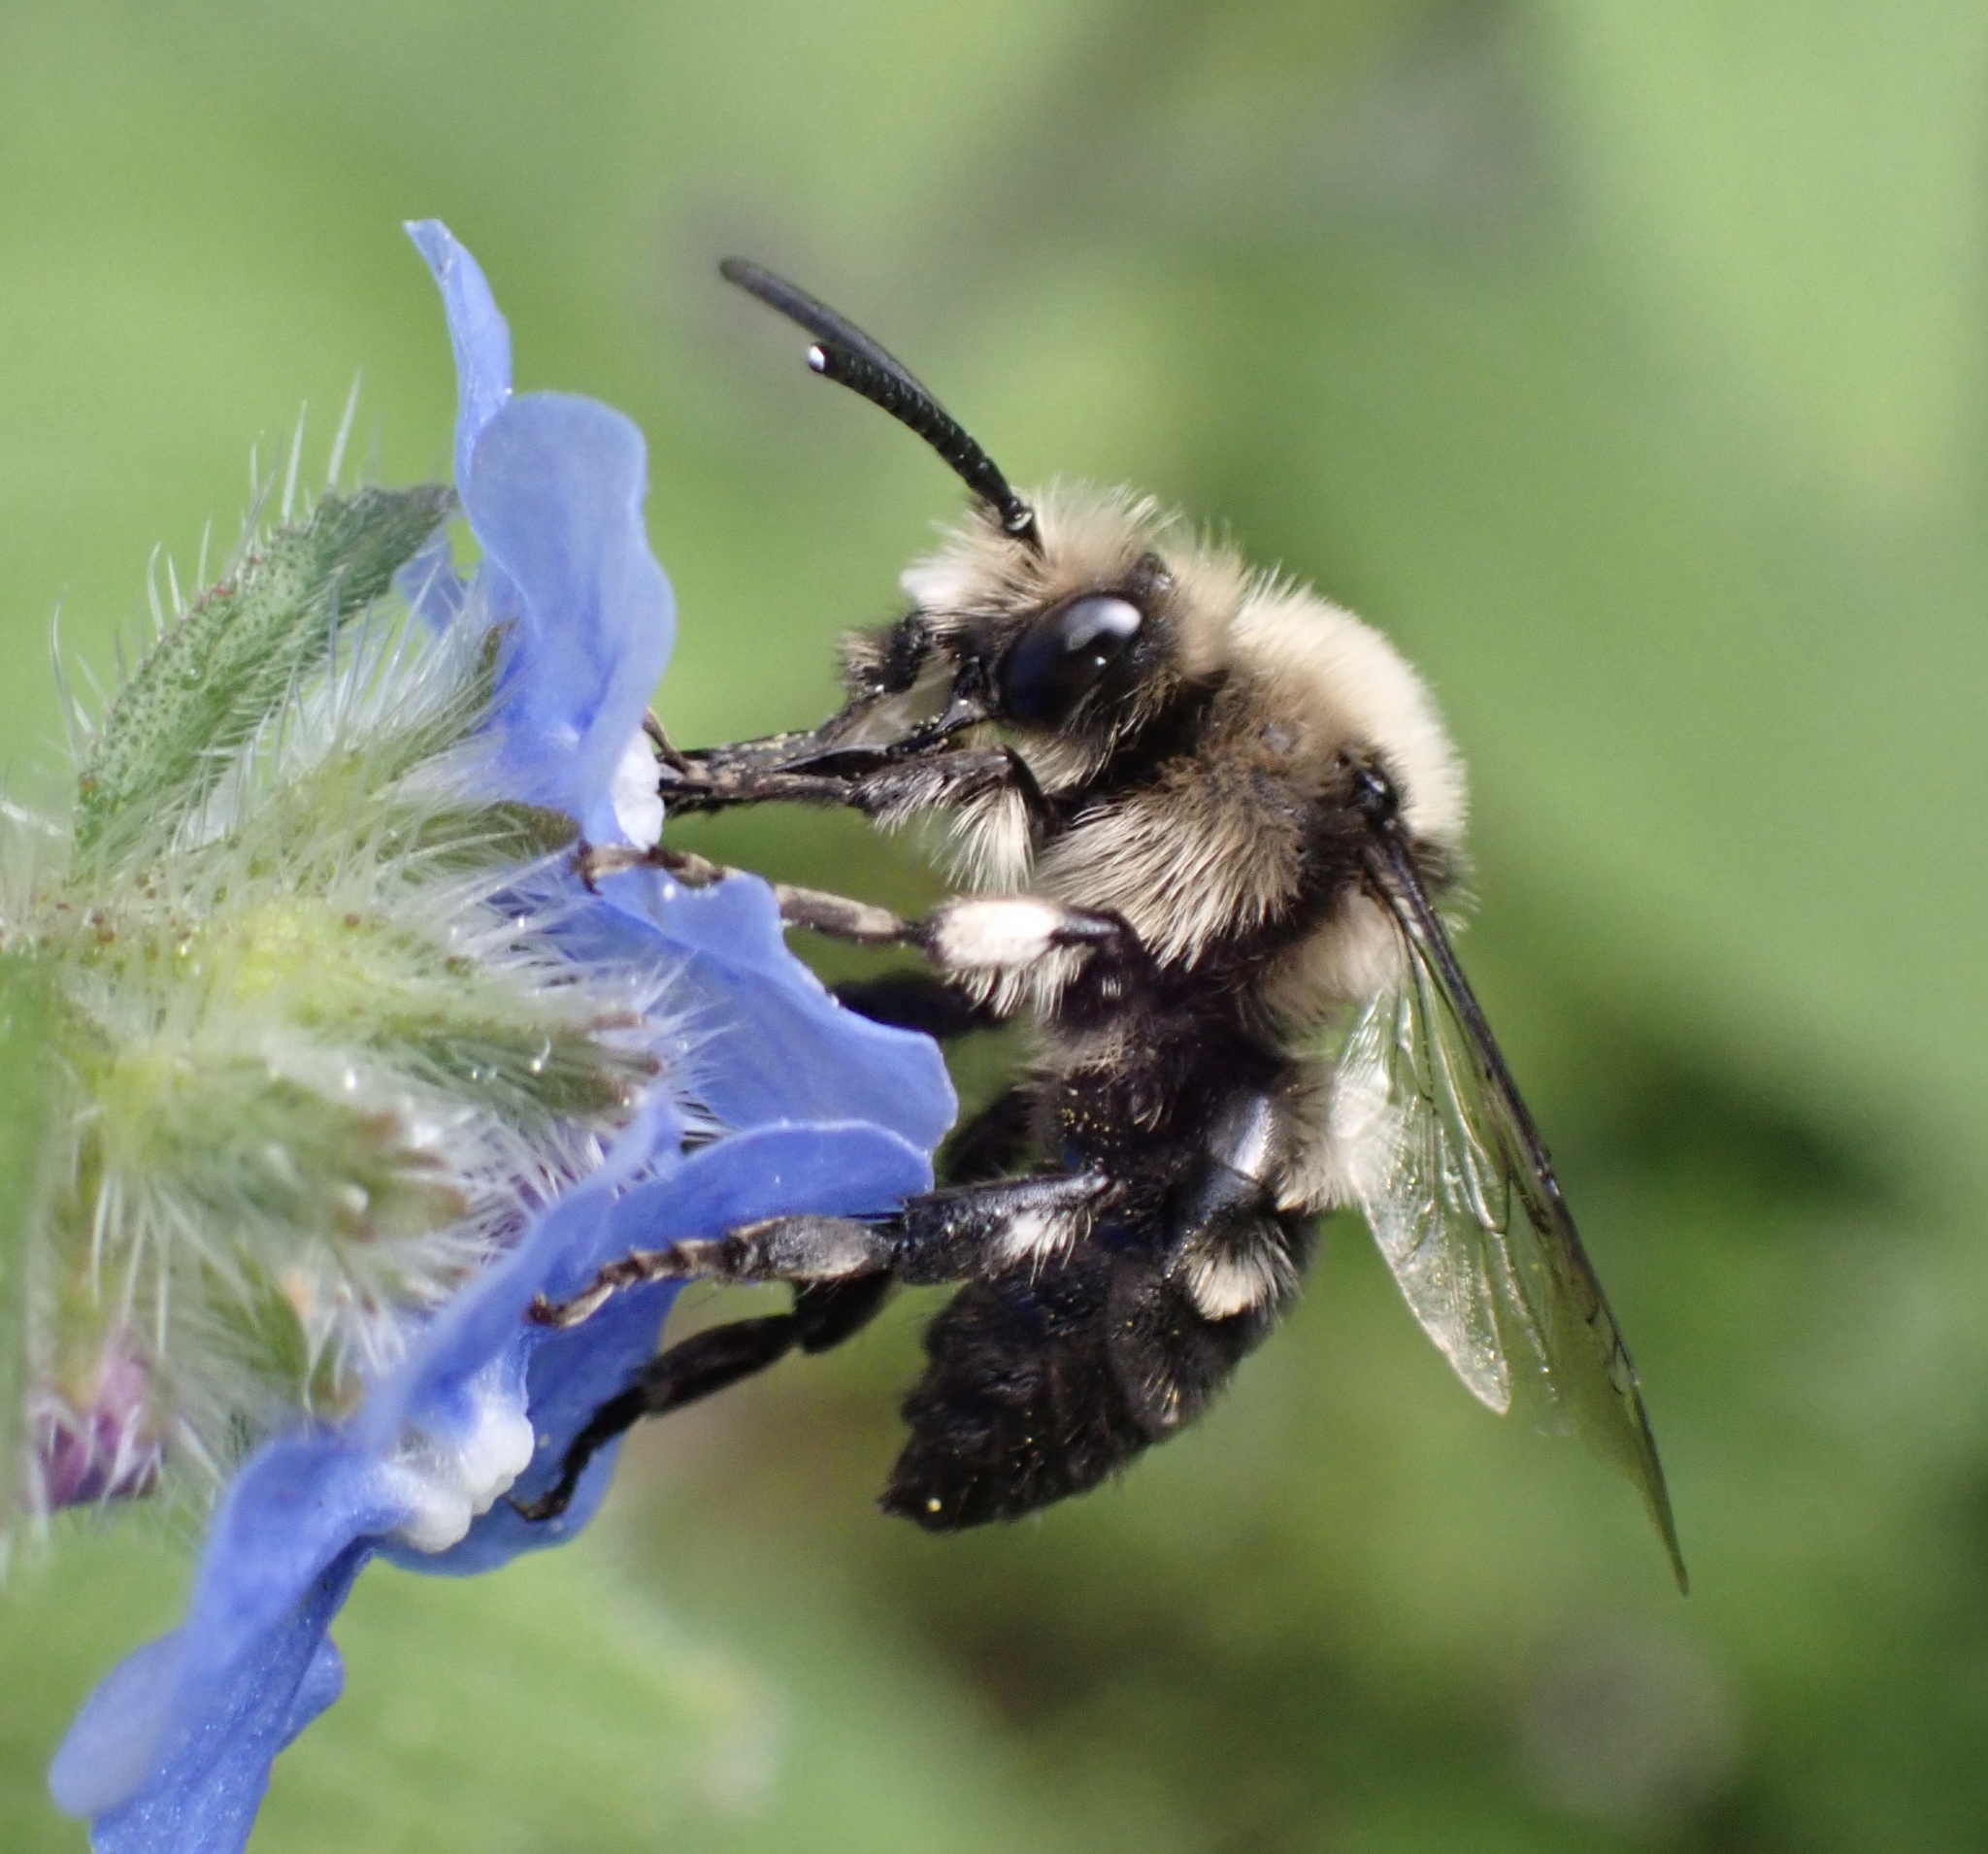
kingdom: Animalia
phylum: Arthropoda
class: Insecta
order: Hymenoptera
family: Apidae
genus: Melecta
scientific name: Melecta albifrons
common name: Common mourning bee
